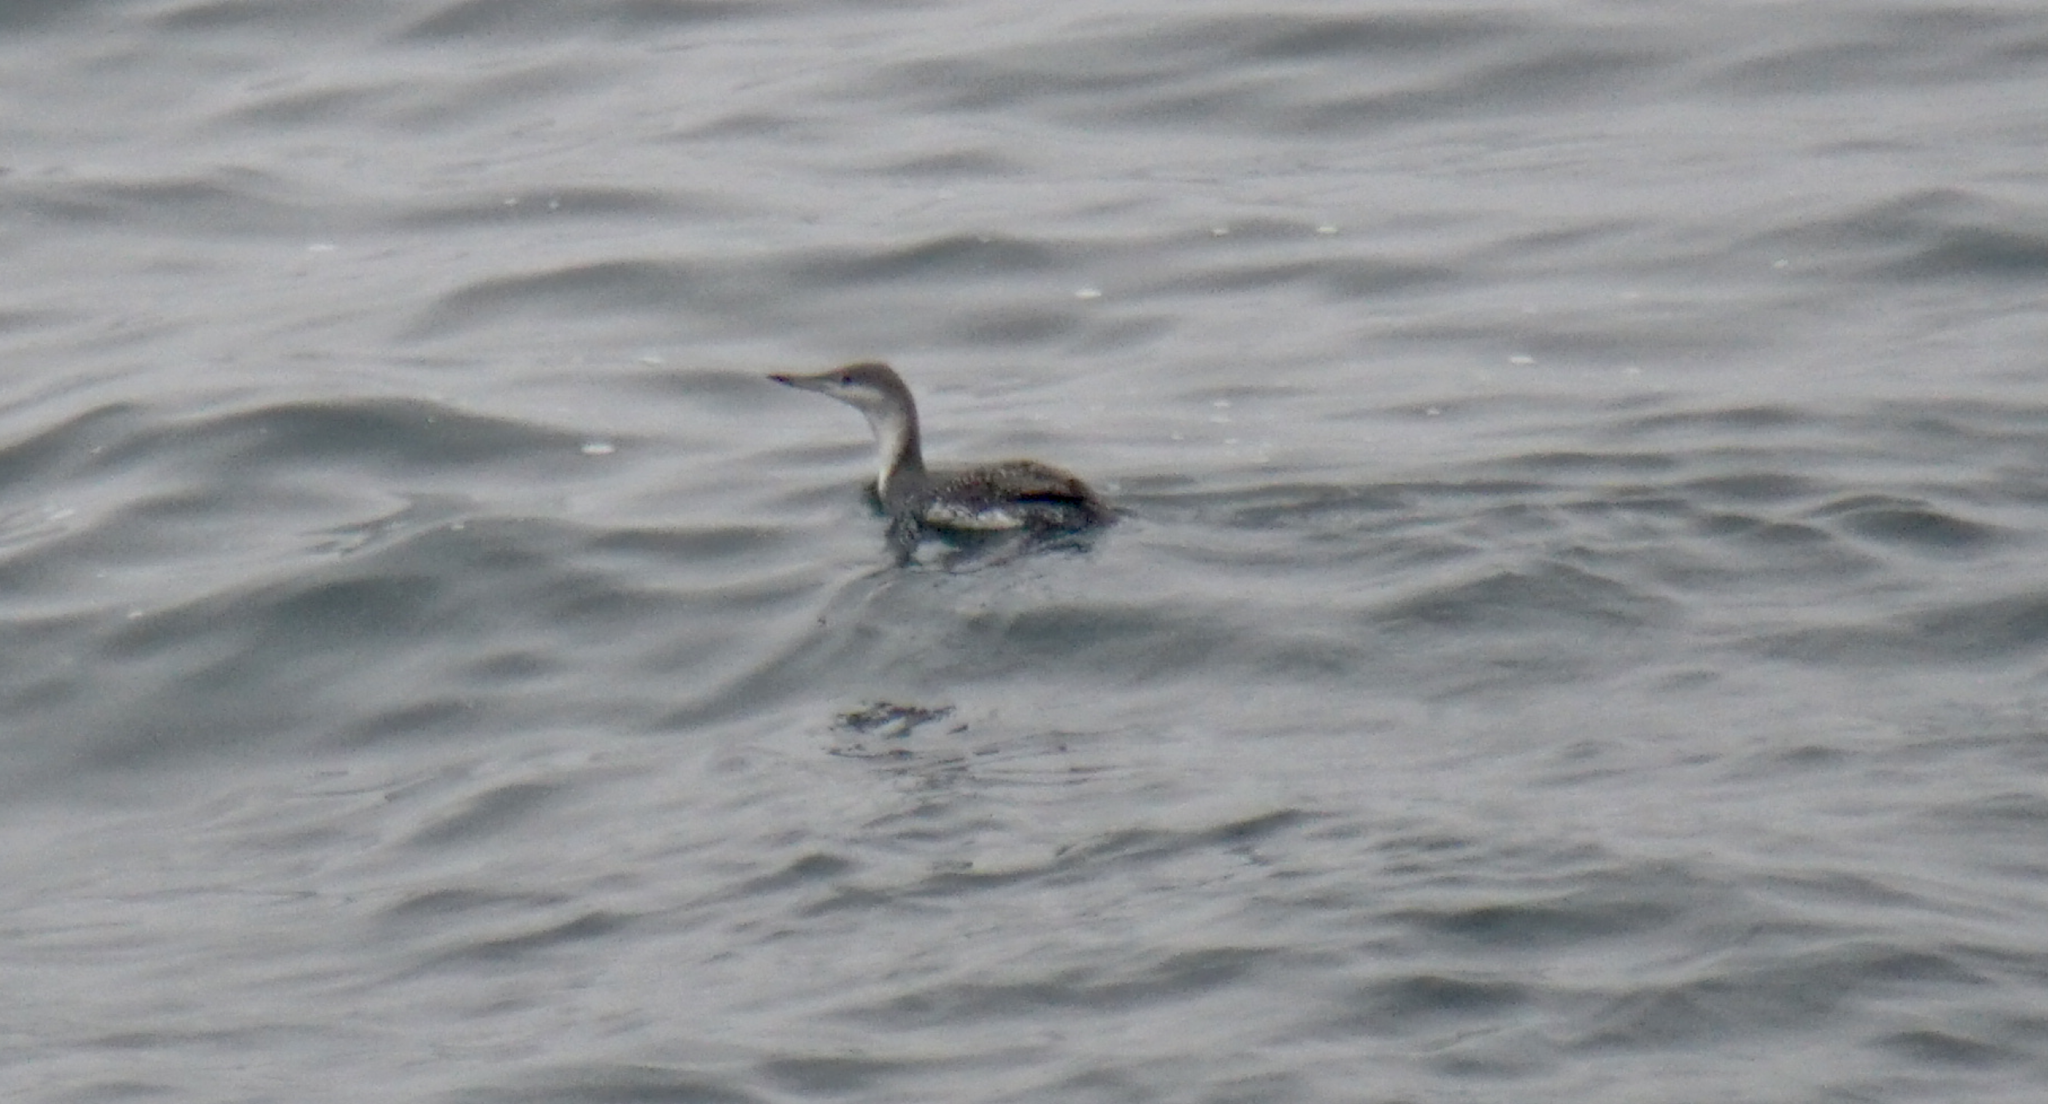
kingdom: Animalia
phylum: Chordata
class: Aves
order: Gaviiformes
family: Gaviidae
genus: Gavia
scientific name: Gavia stellata
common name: Red-throated loon
